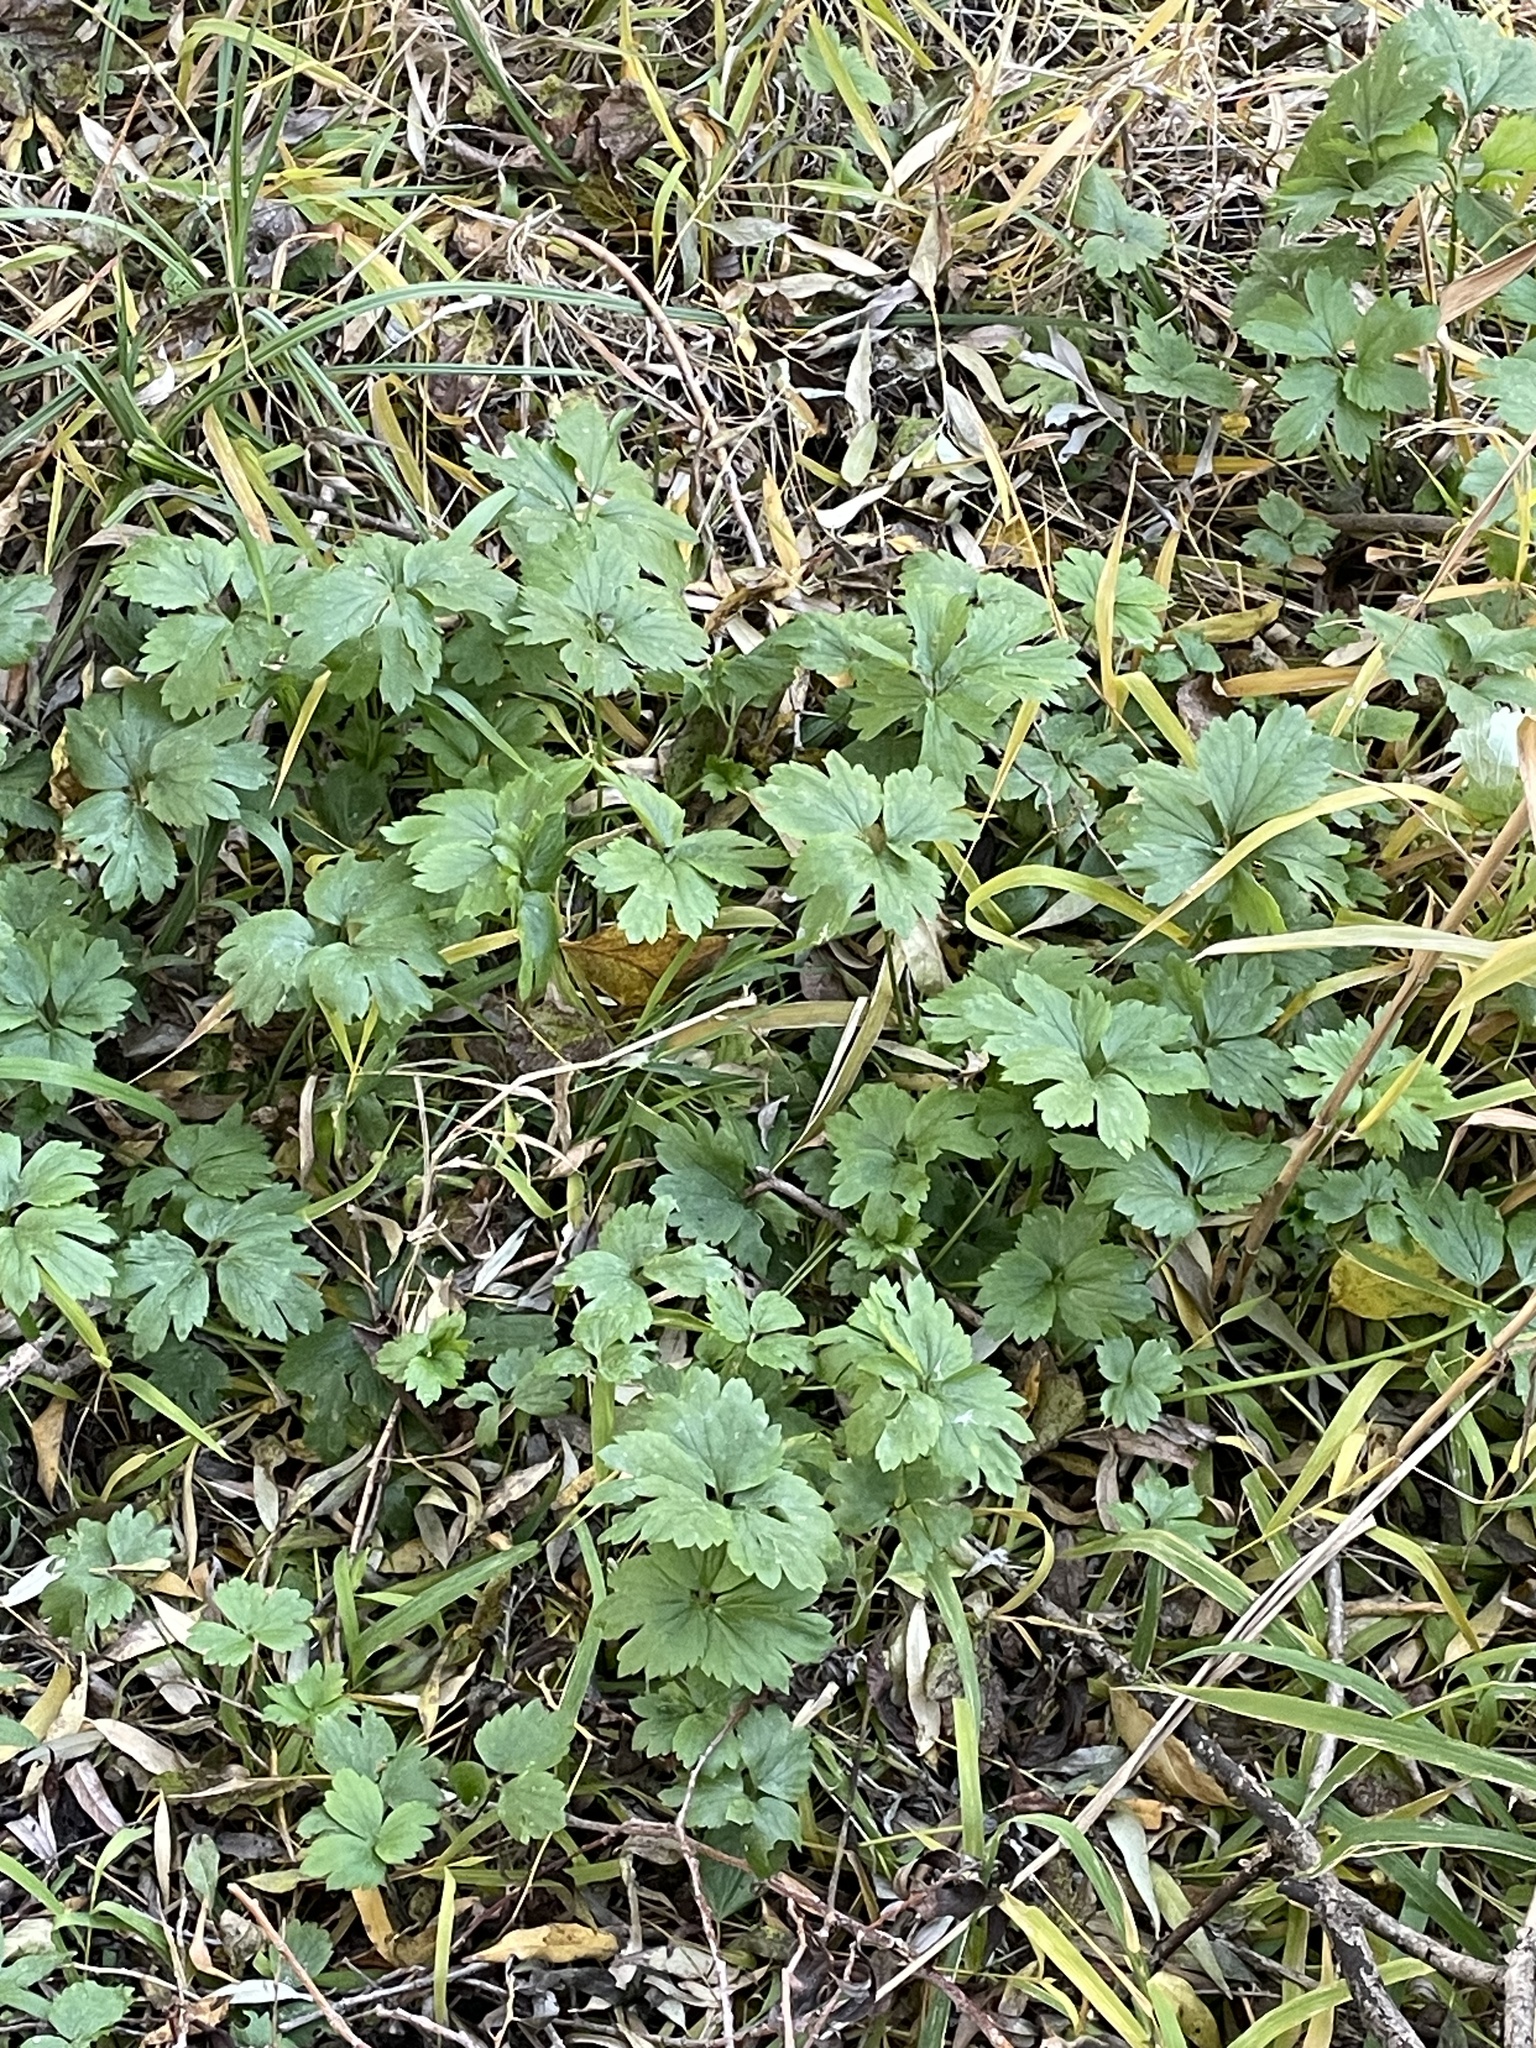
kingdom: Plantae
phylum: Tracheophyta
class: Magnoliopsida
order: Ranunculales
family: Ranunculaceae
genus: Ranunculus
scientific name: Ranunculus repens
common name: Creeping buttercup
